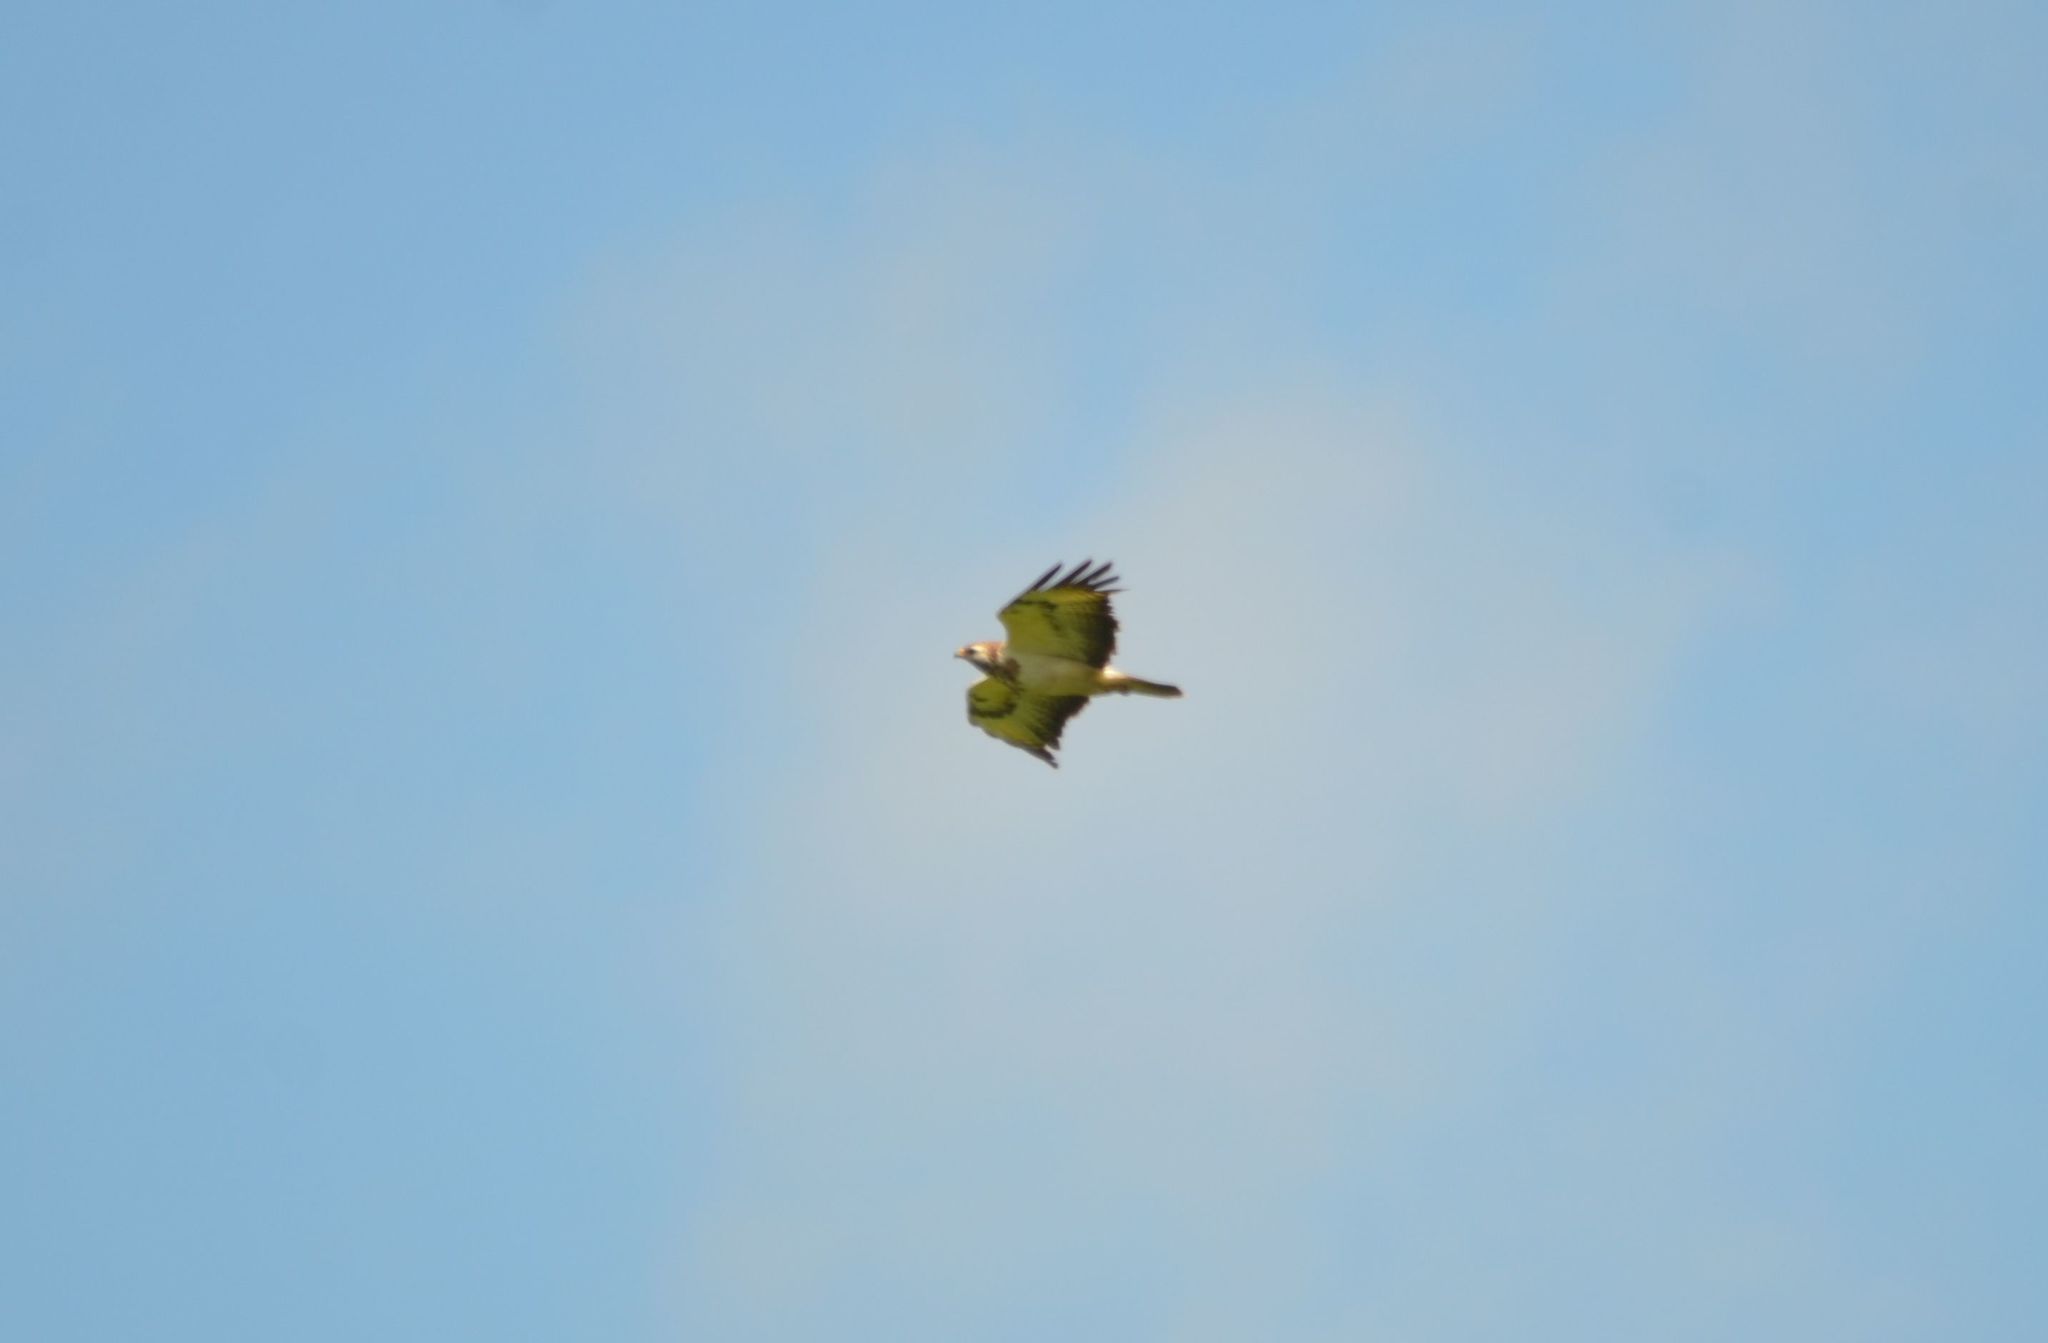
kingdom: Animalia
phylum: Chordata
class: Aves
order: Accipitriformes
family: Accipitridae
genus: Buteo
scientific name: Buteo buteo
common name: Common buzzard
